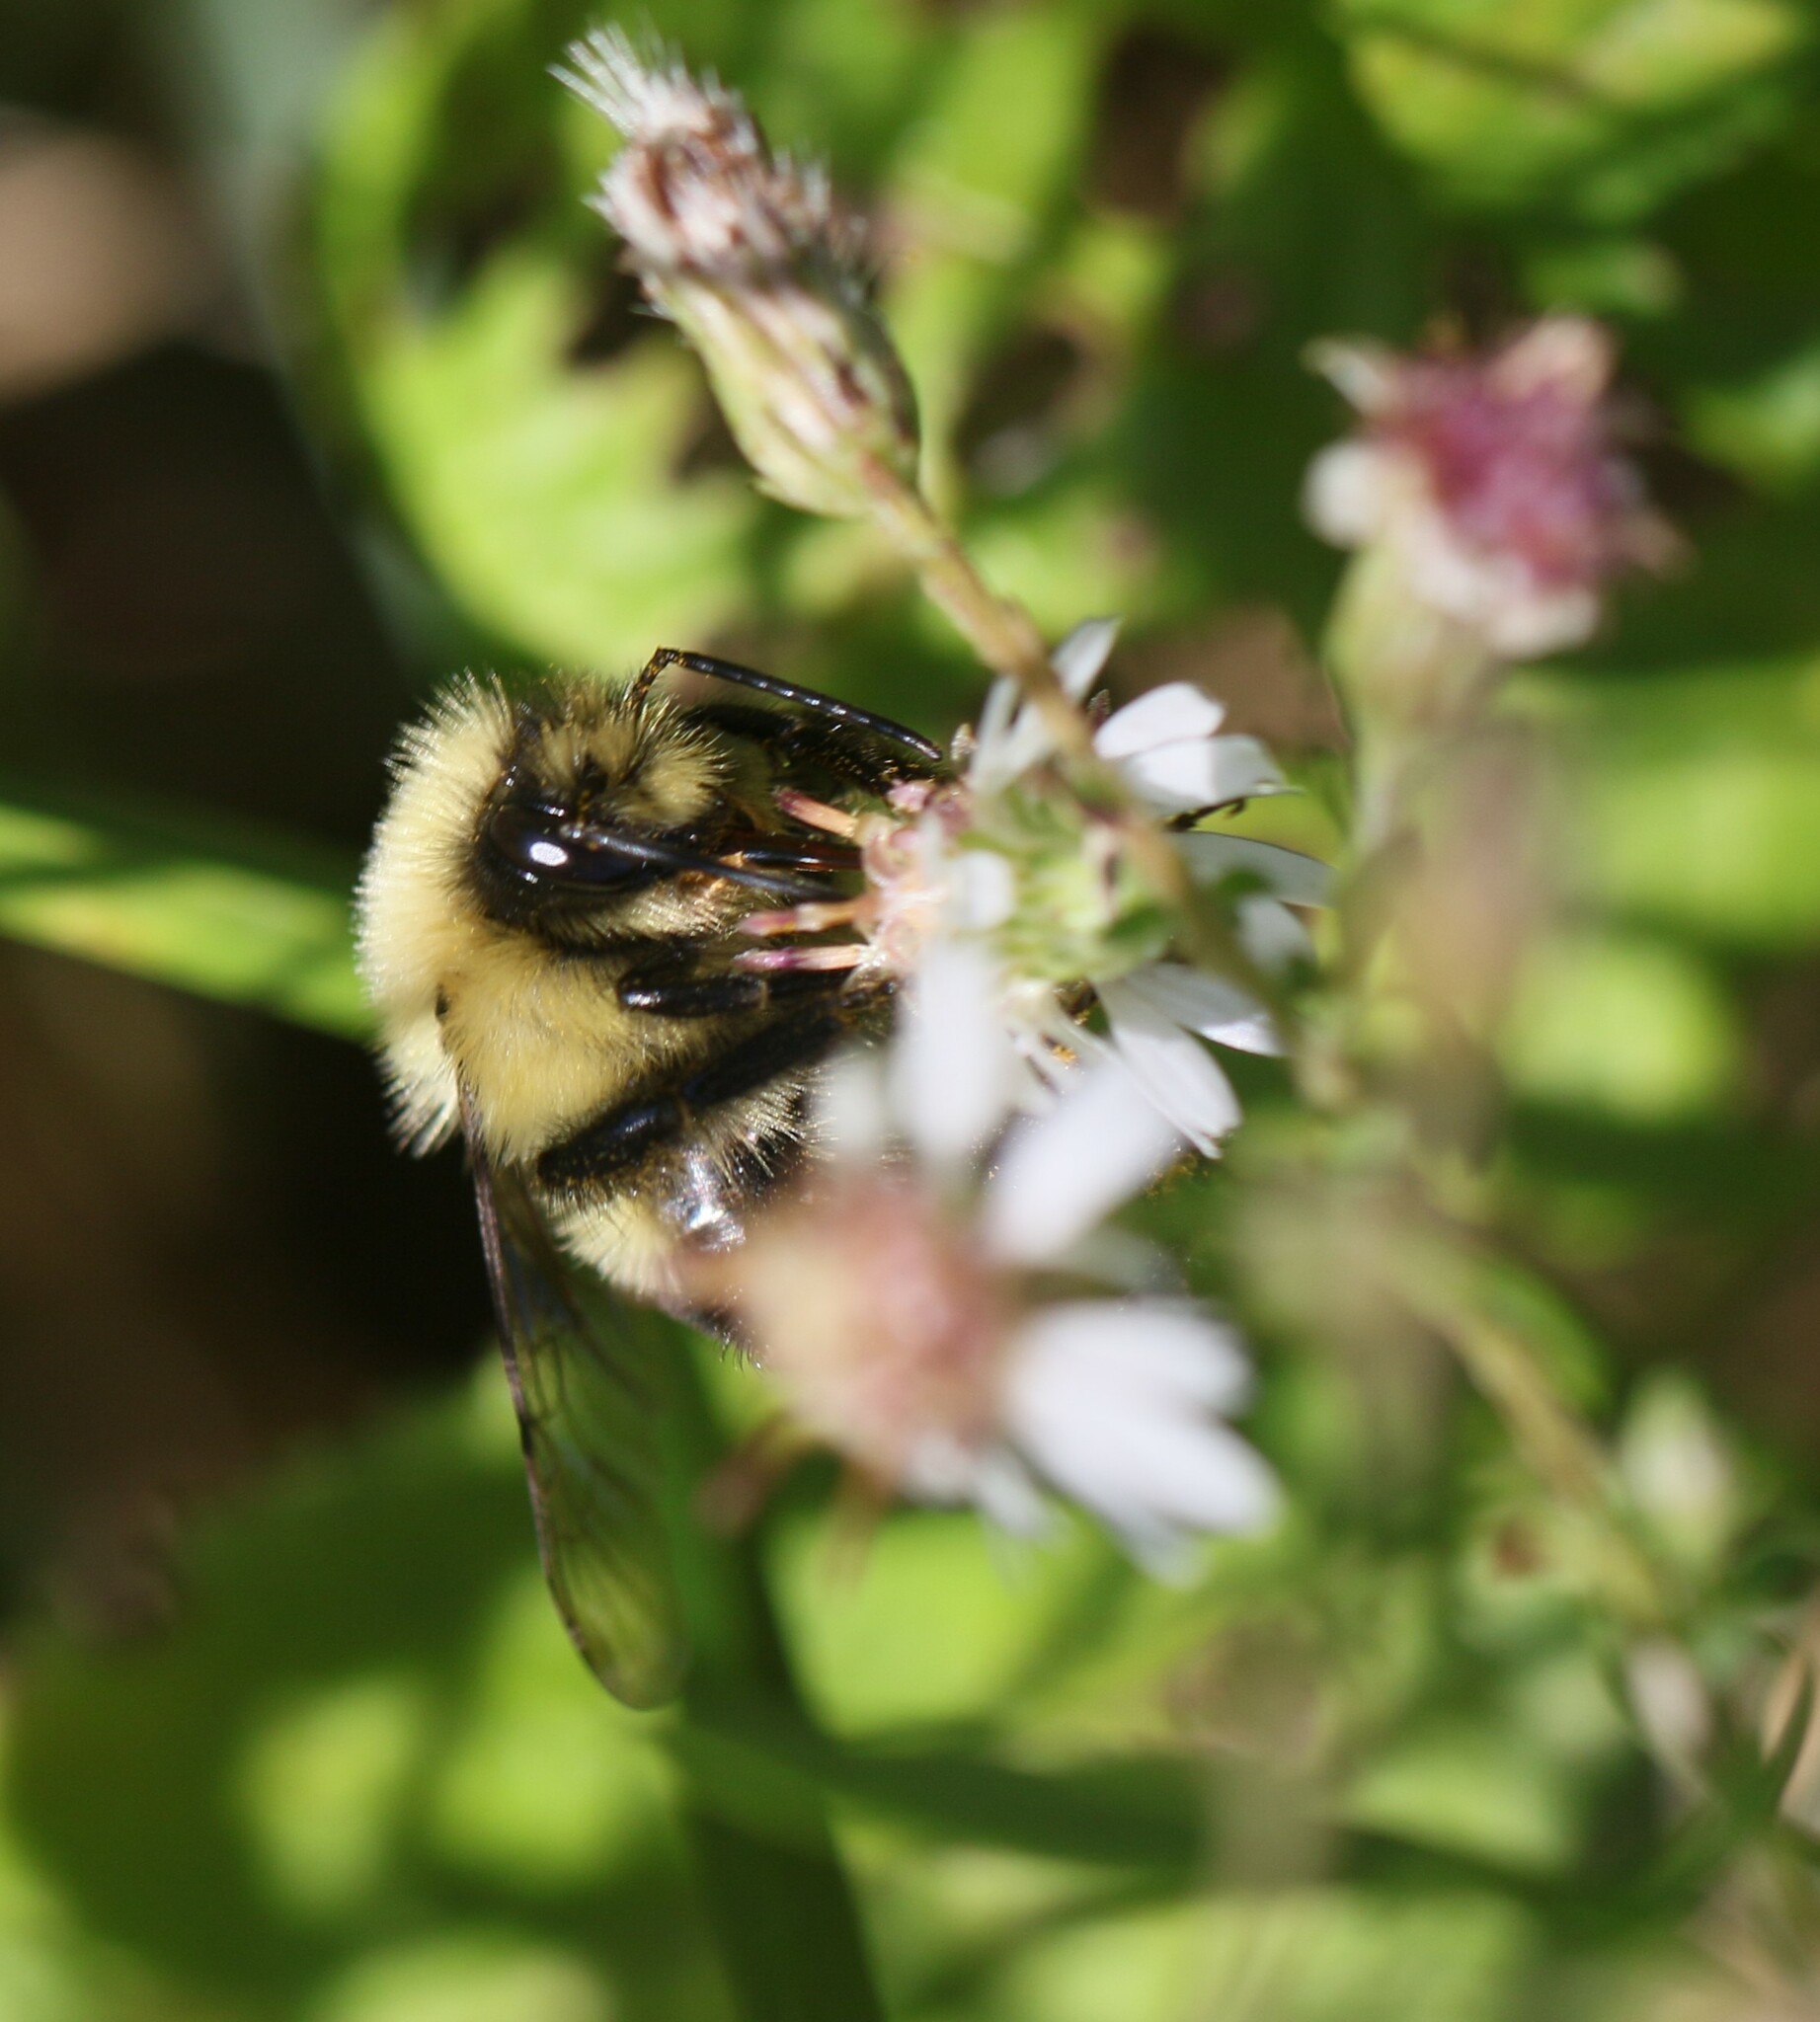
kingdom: Animalia
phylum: Arthropoda
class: Insecta
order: Hymenoptera
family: Apidae
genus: Bombus
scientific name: Bombus impatiens
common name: Common eastern bumble bee
